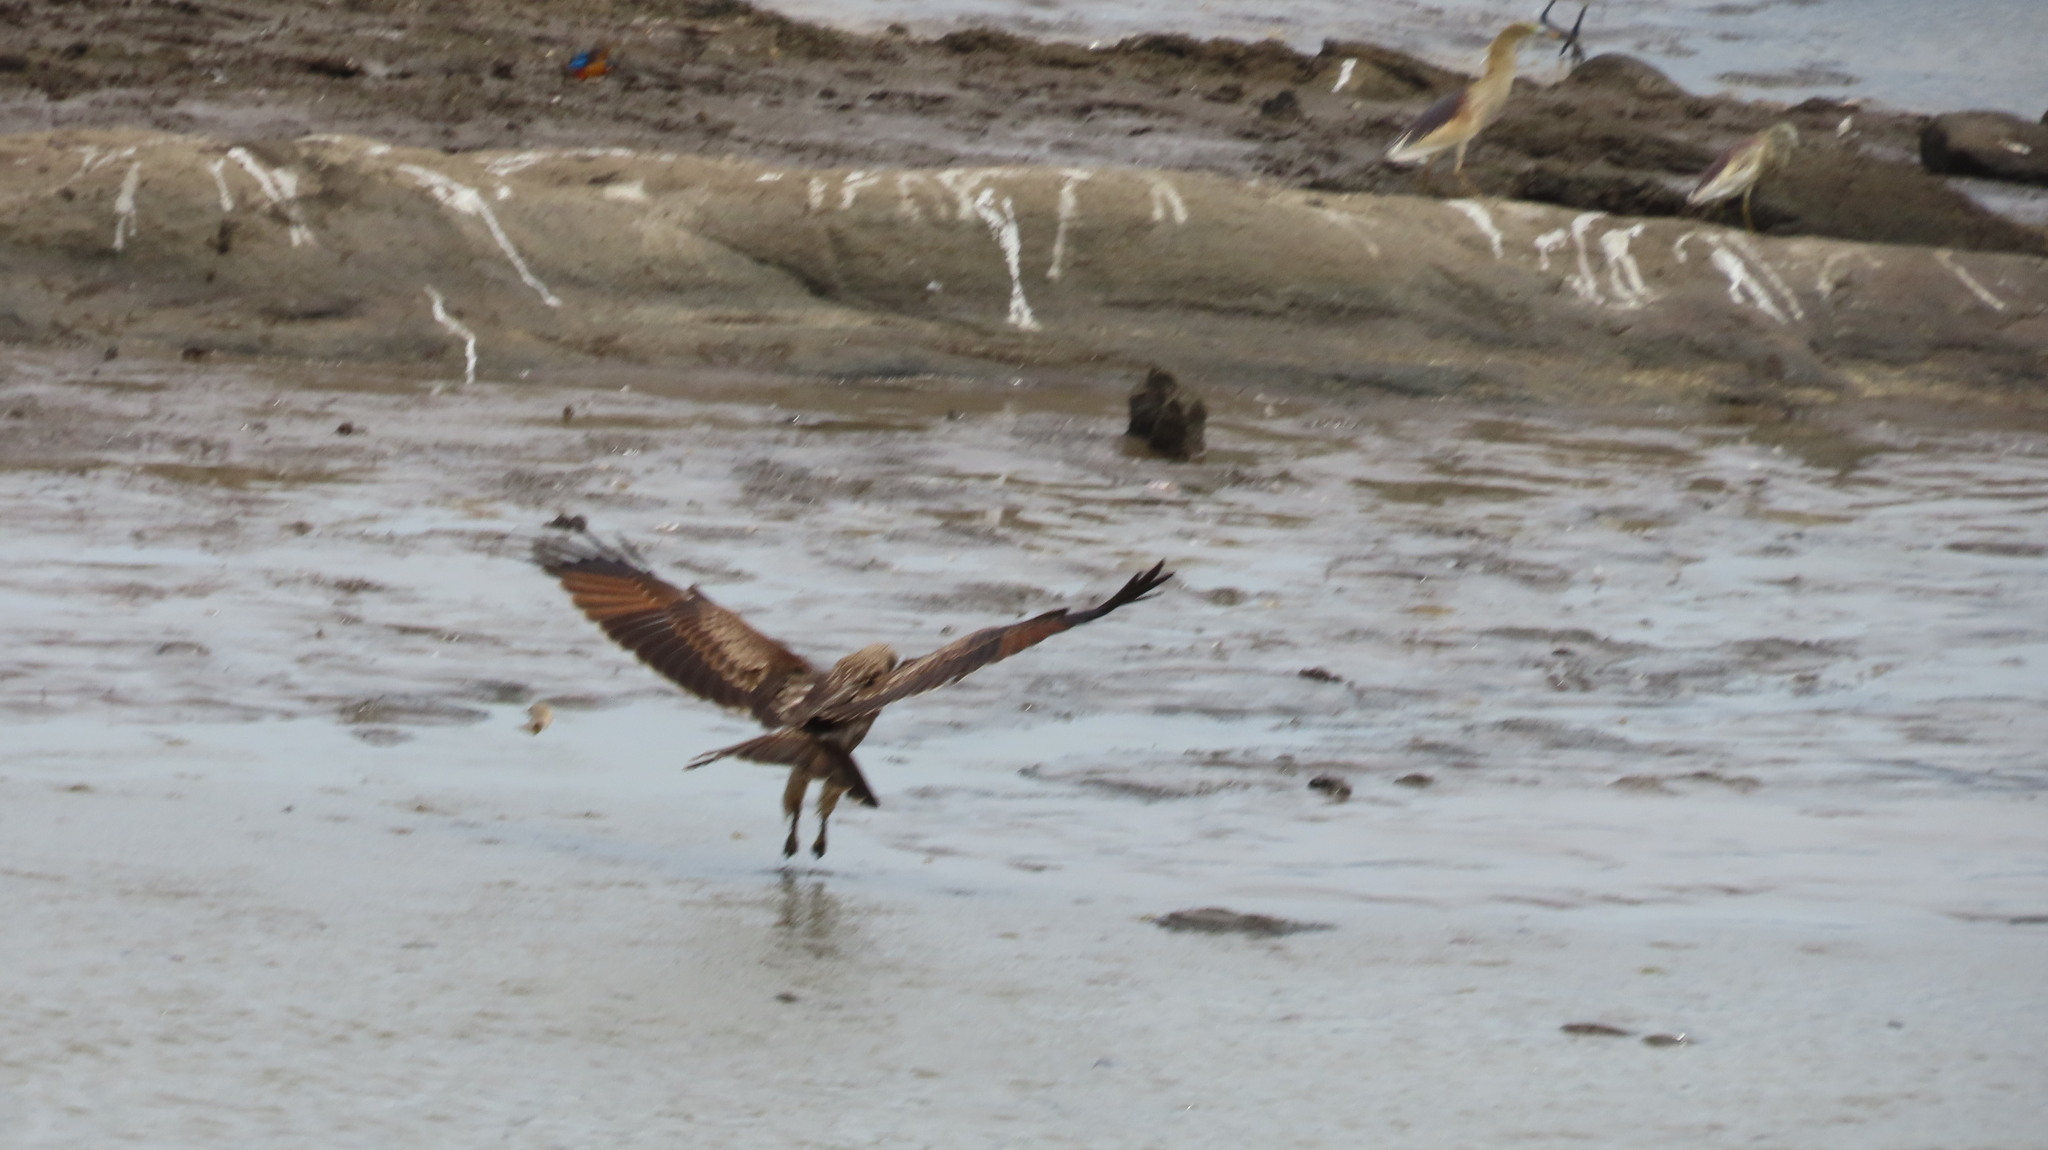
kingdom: Animalia
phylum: Chordata
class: Aves
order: Accipitriformes
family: Accipitridae
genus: Haliastur
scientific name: Haliastur indus
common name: Brahminy kite
